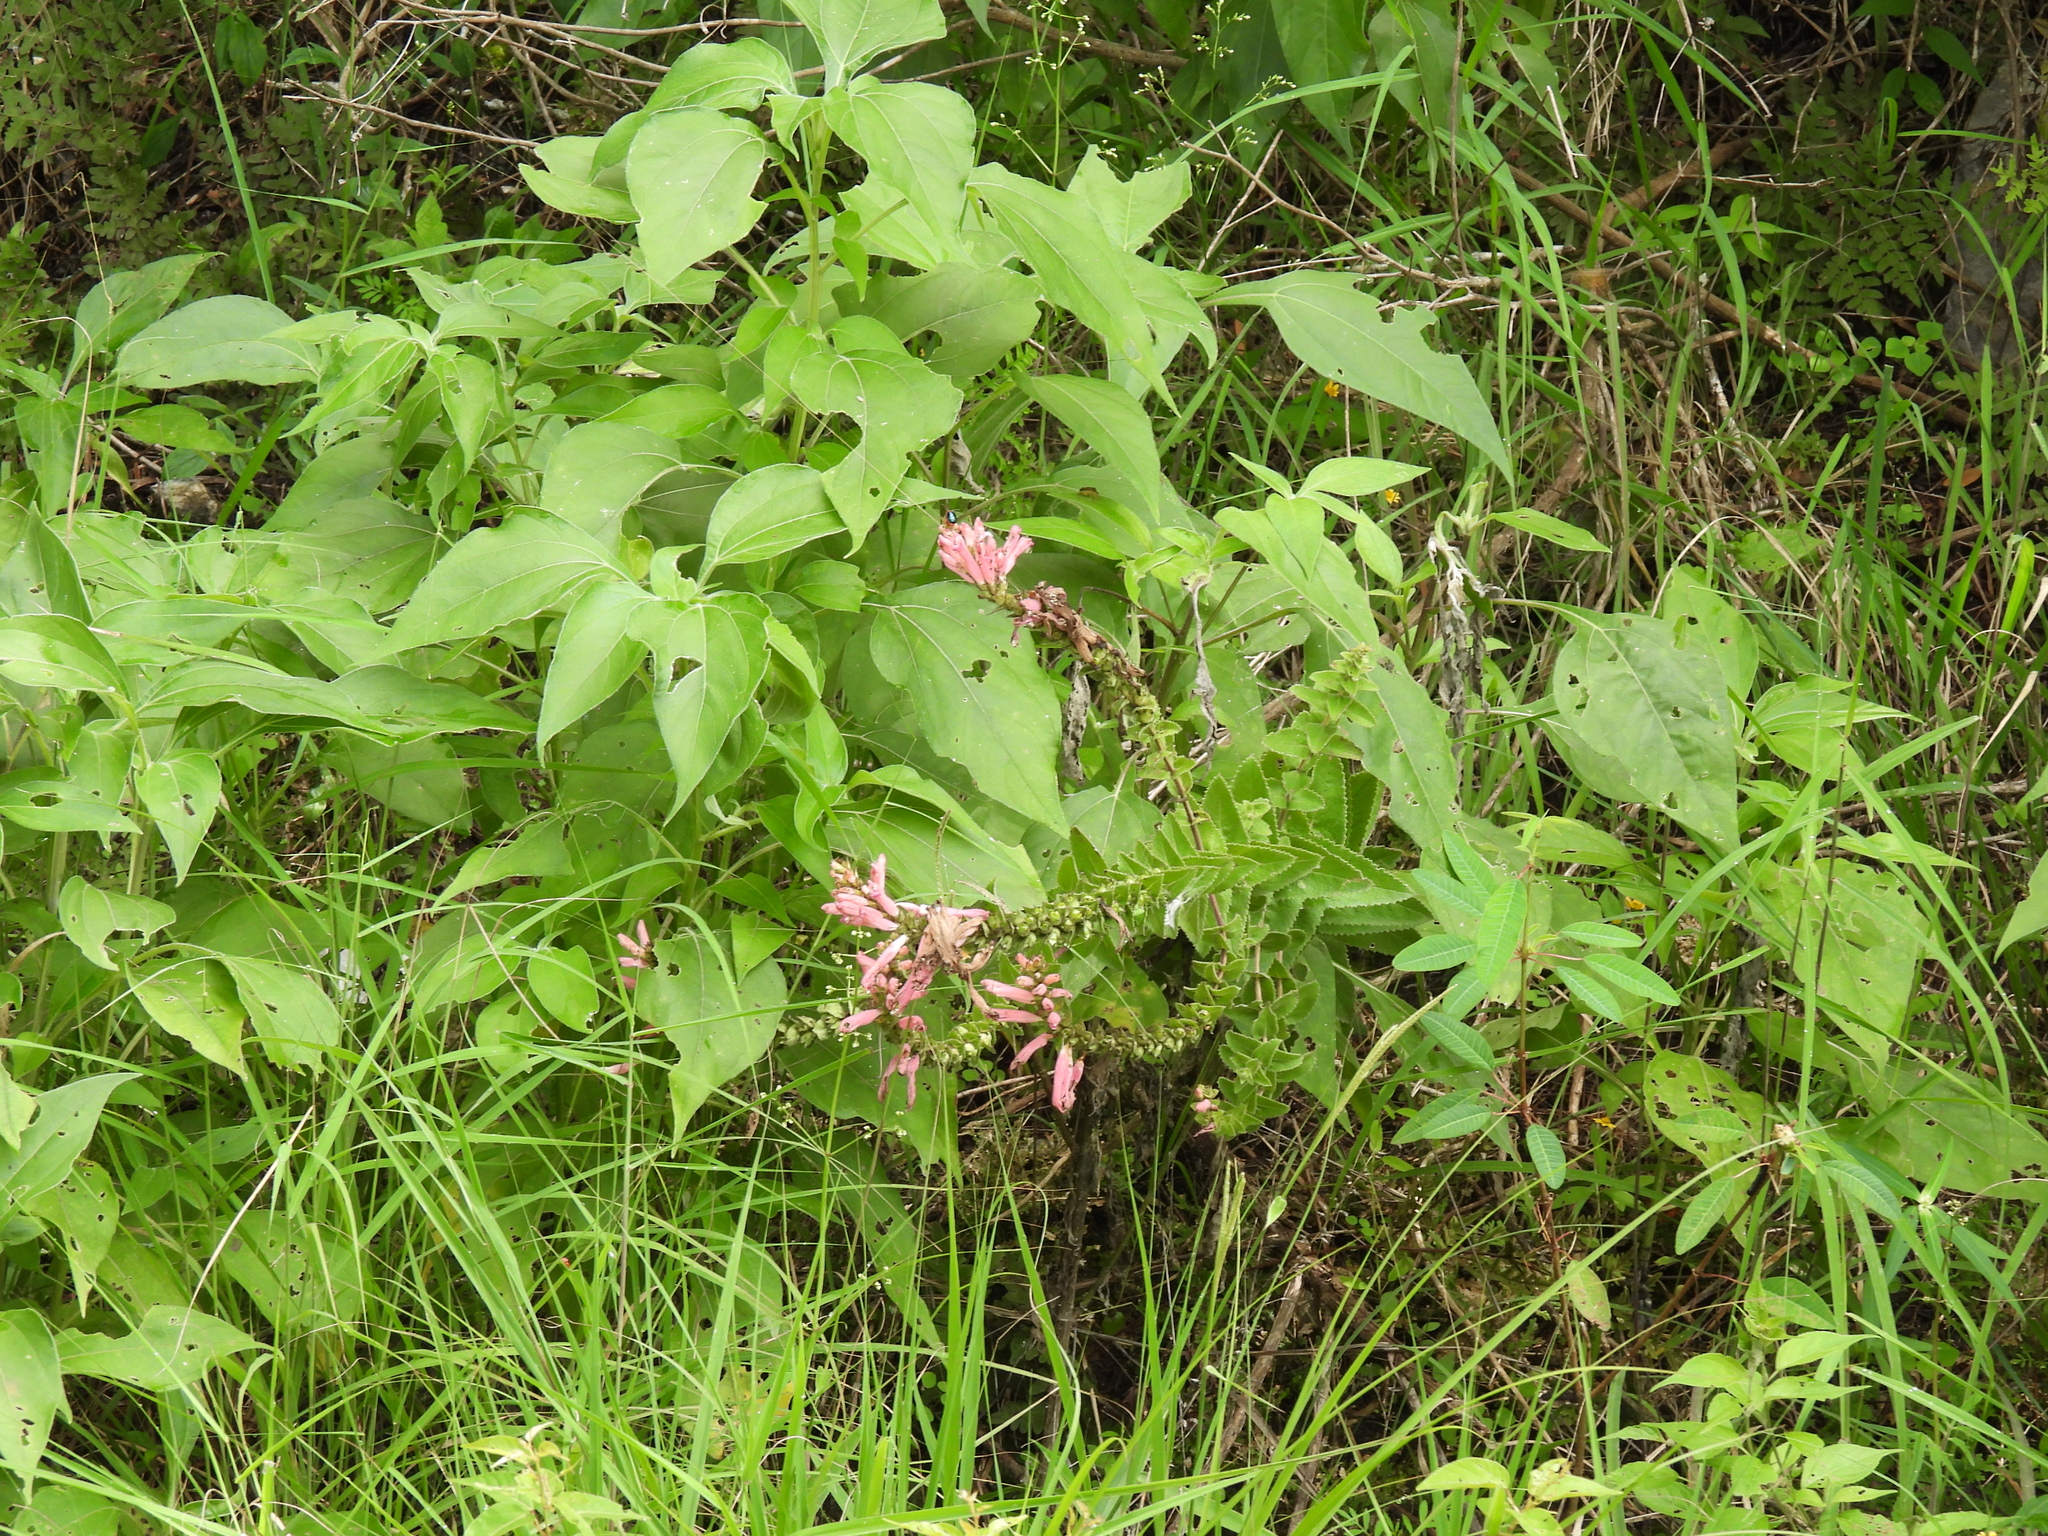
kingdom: Plantae
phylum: Tracheophyta
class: Magnoliopsida
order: Lamiales
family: Orobanchaceae
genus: Lamourouxia
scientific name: Lamourouxia viscosa
